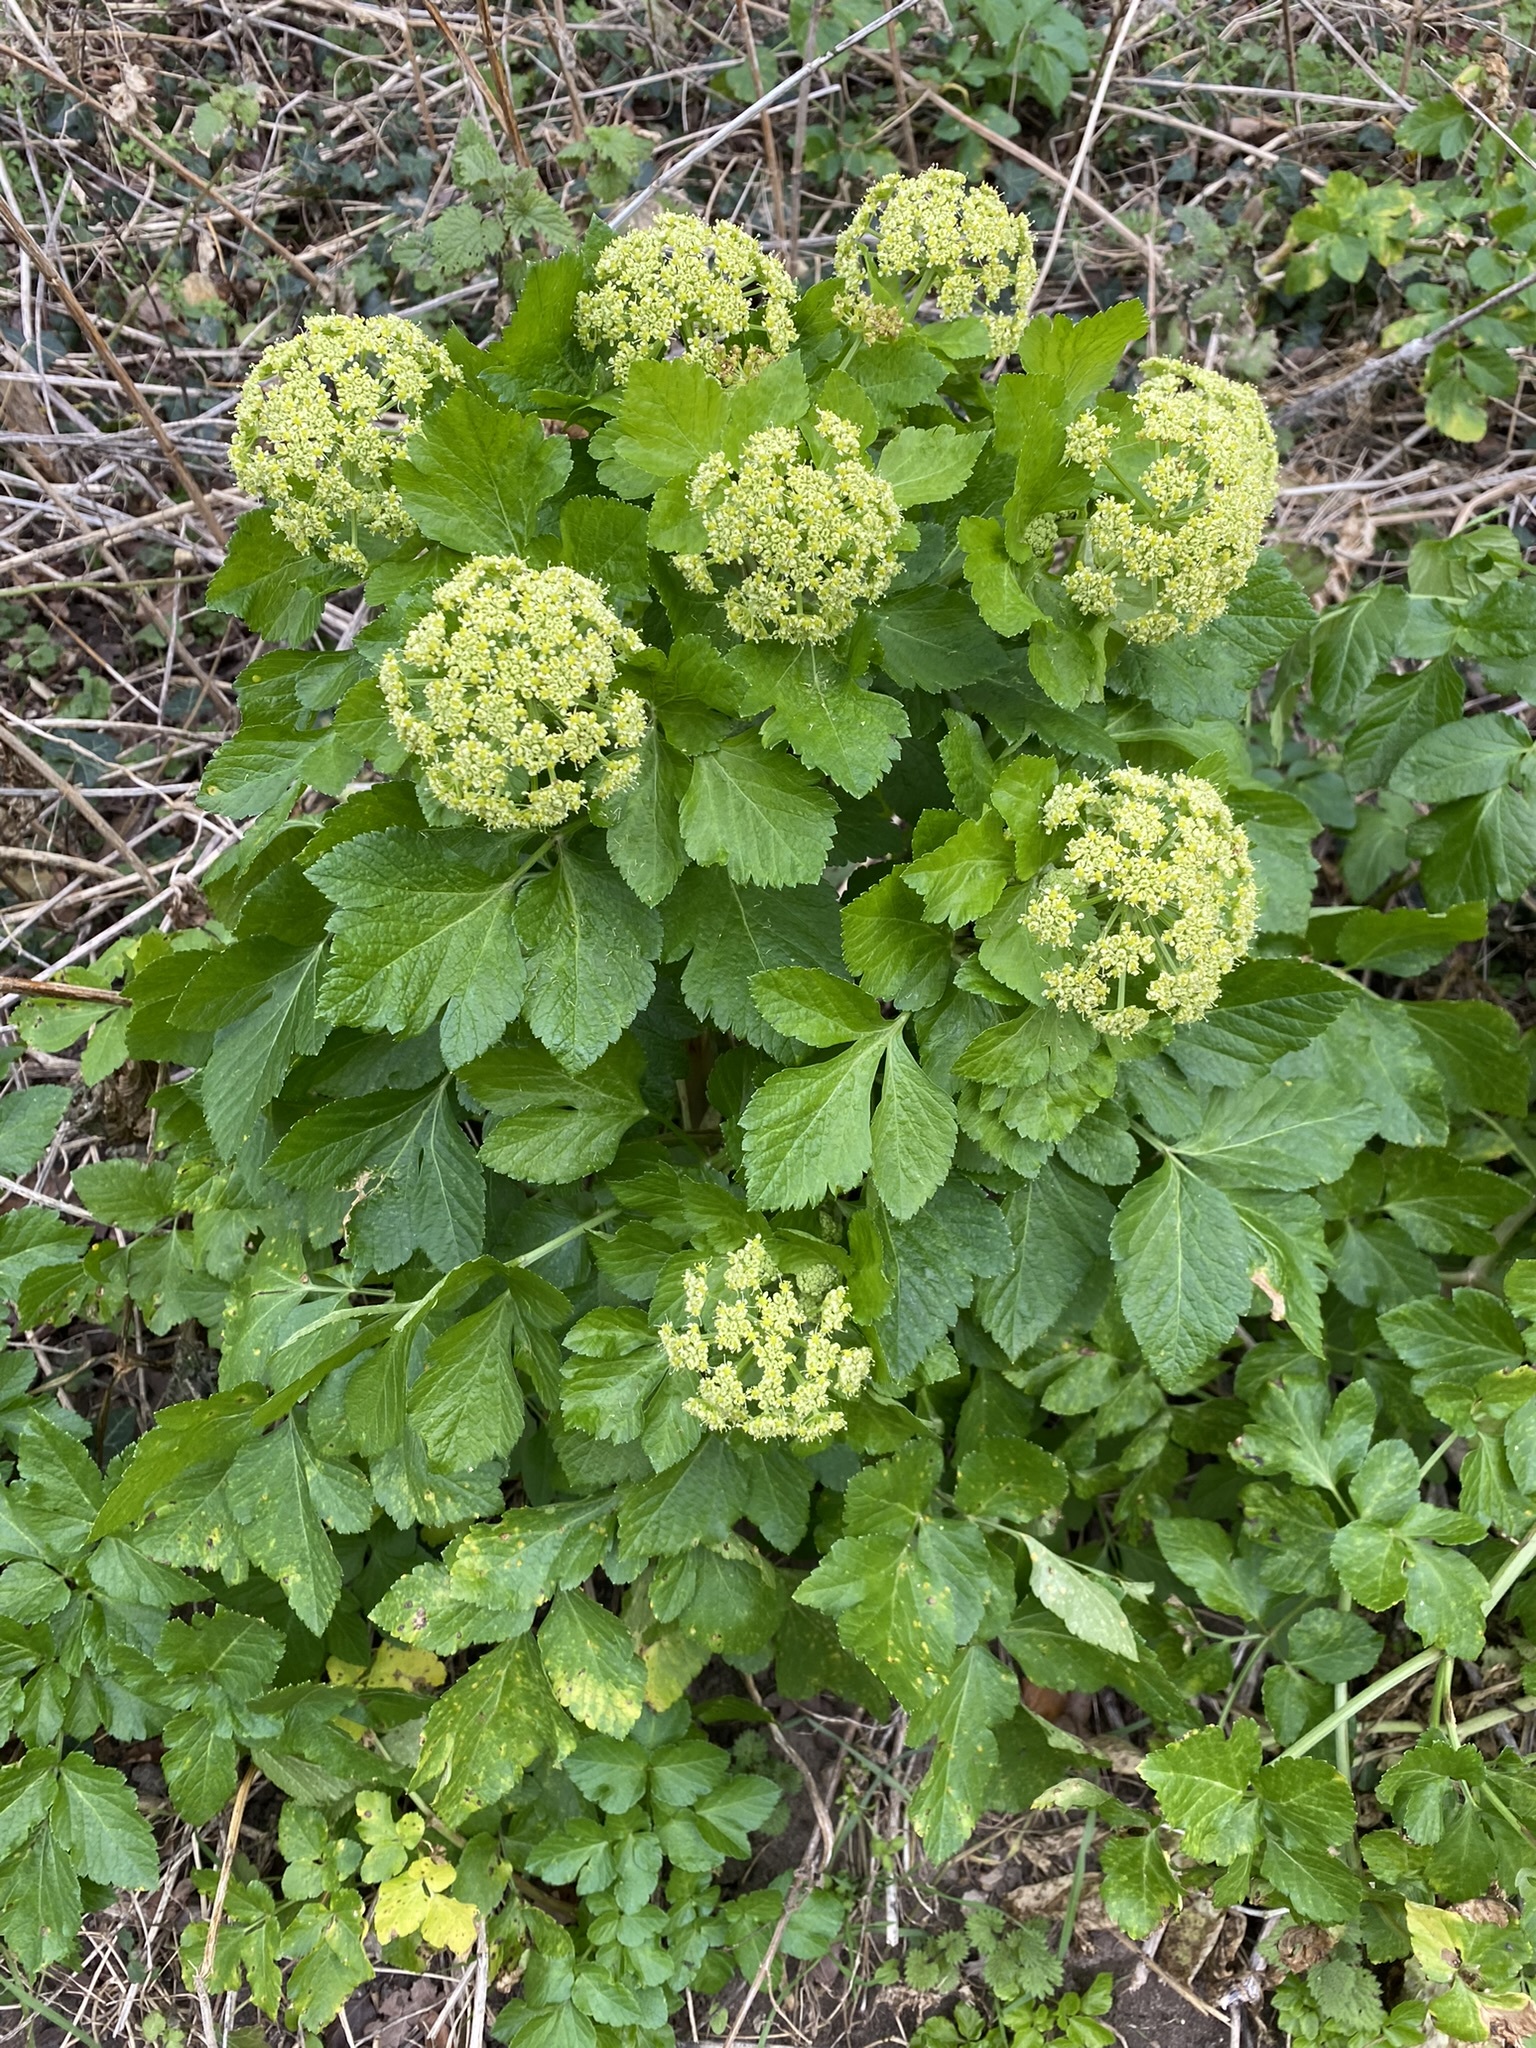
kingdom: Plantae
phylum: Tracheophyta
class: Magnoliopsida
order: Apiales
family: Apiaceae
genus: Smyrnium
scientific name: Smyrnium olusatrum
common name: Alexanders
